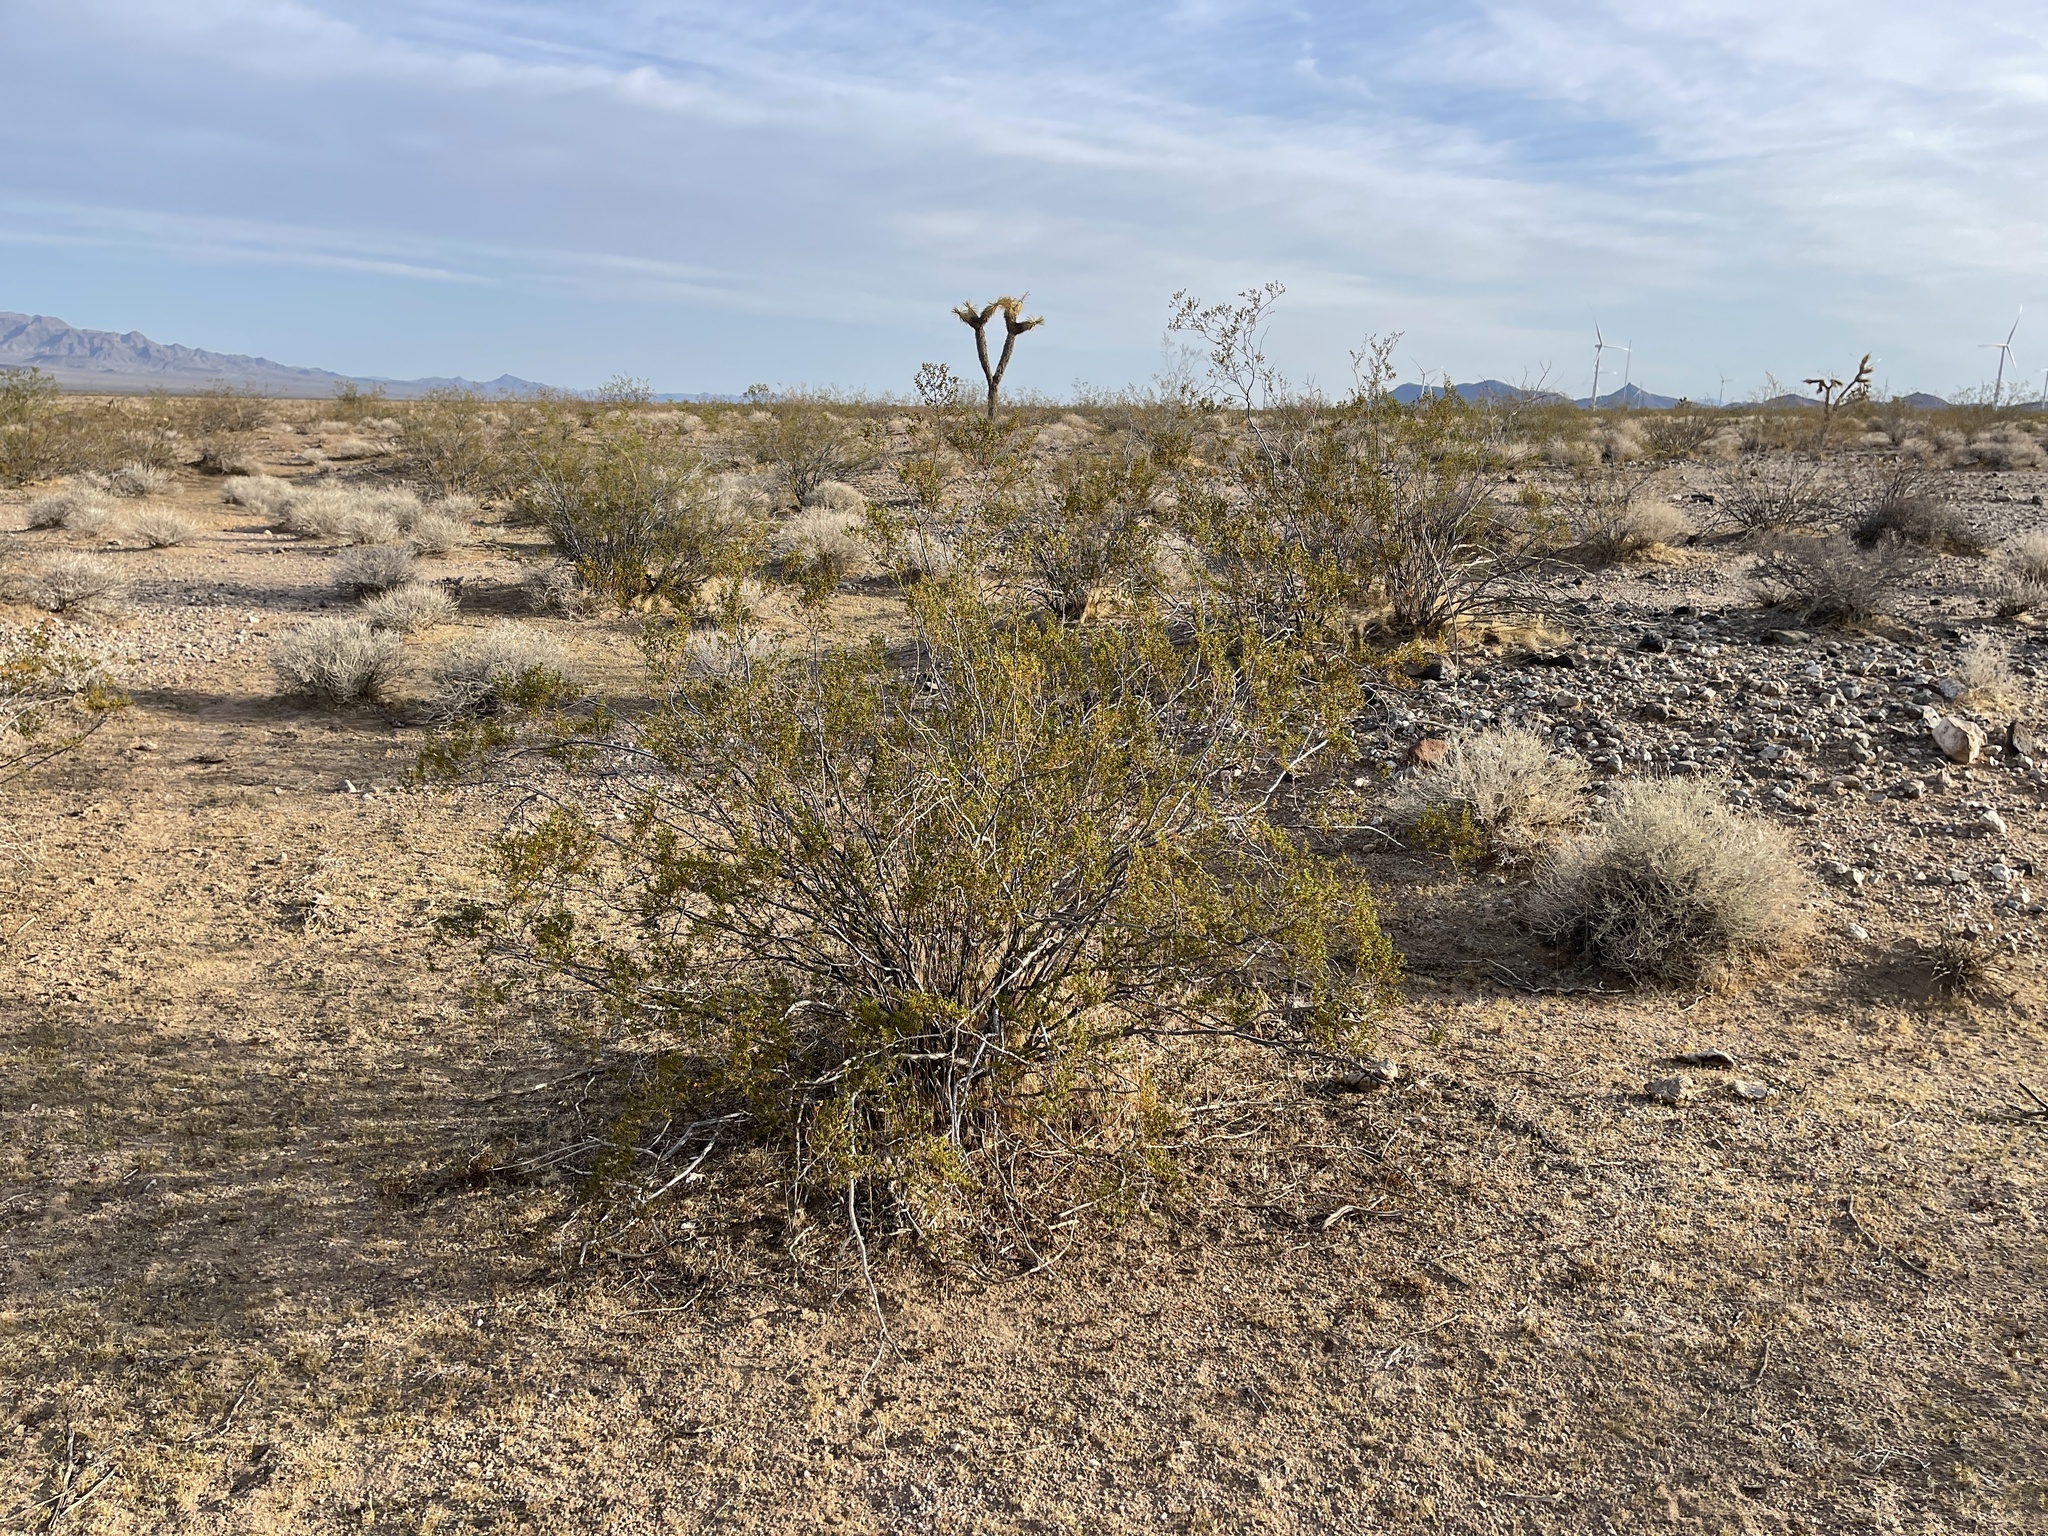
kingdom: Plantae
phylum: Tracheophyta
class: Magnoliopsida
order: Zygophyllales
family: Zygophyllaceae
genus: Larrea
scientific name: Larrea tridentata
